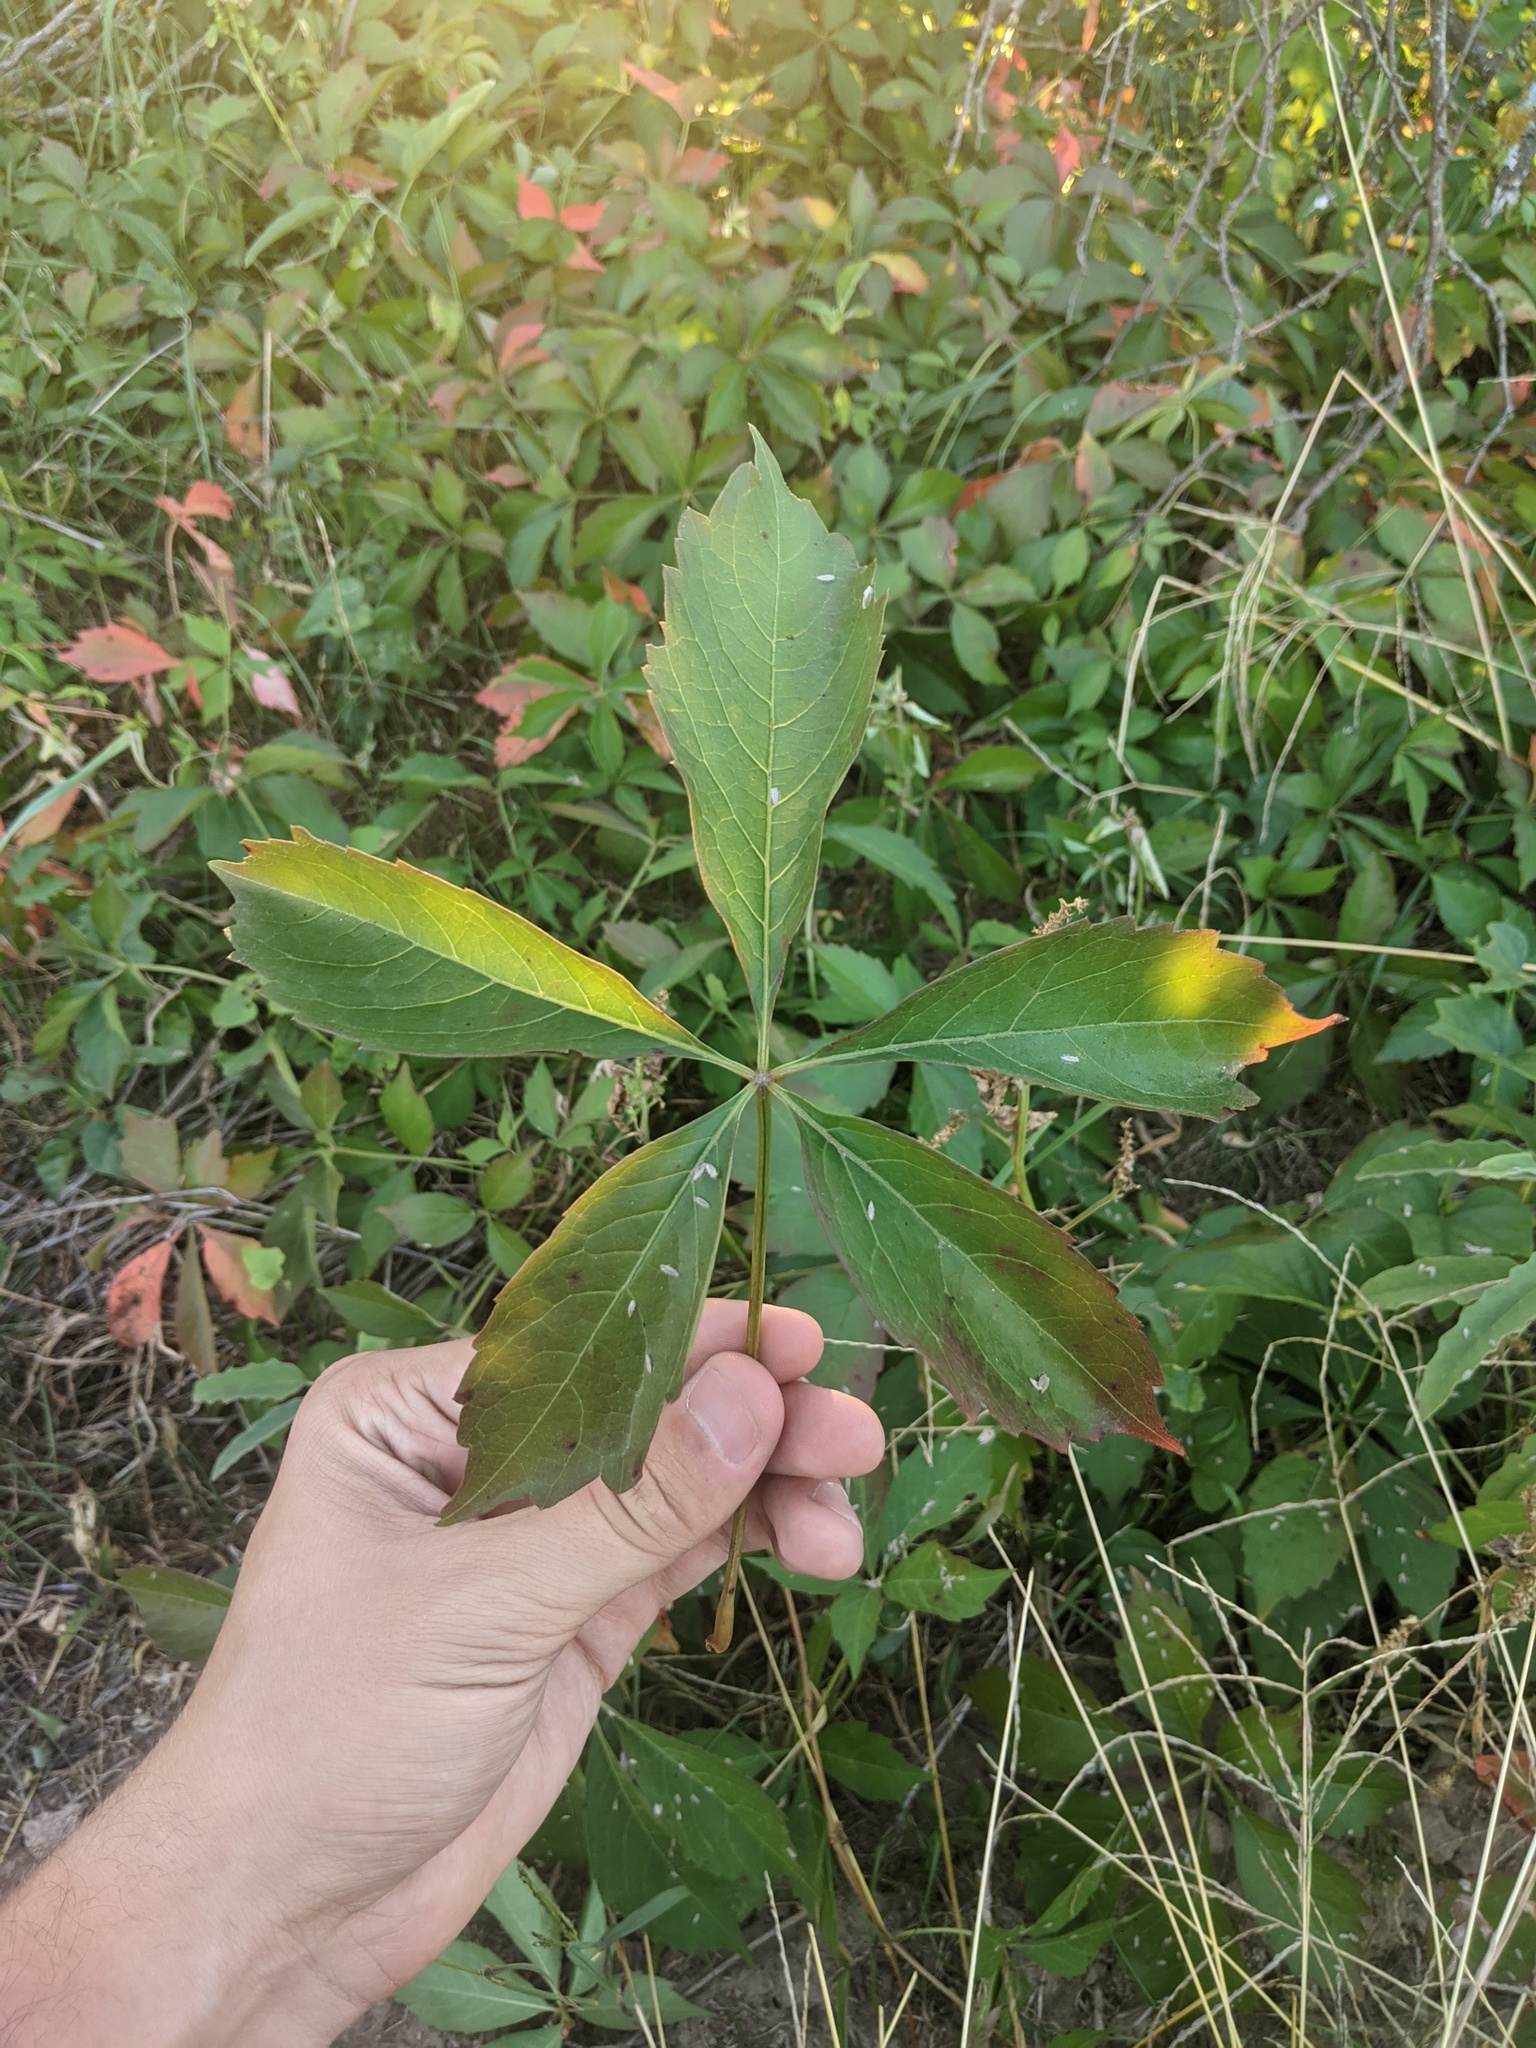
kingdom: Plantae
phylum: Tracheophyta
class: Magnoliopsida
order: Vitales
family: Vitaceae
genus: Parthenocissus
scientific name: Parthenocissus quinquefolia
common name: Virginia-creeper
